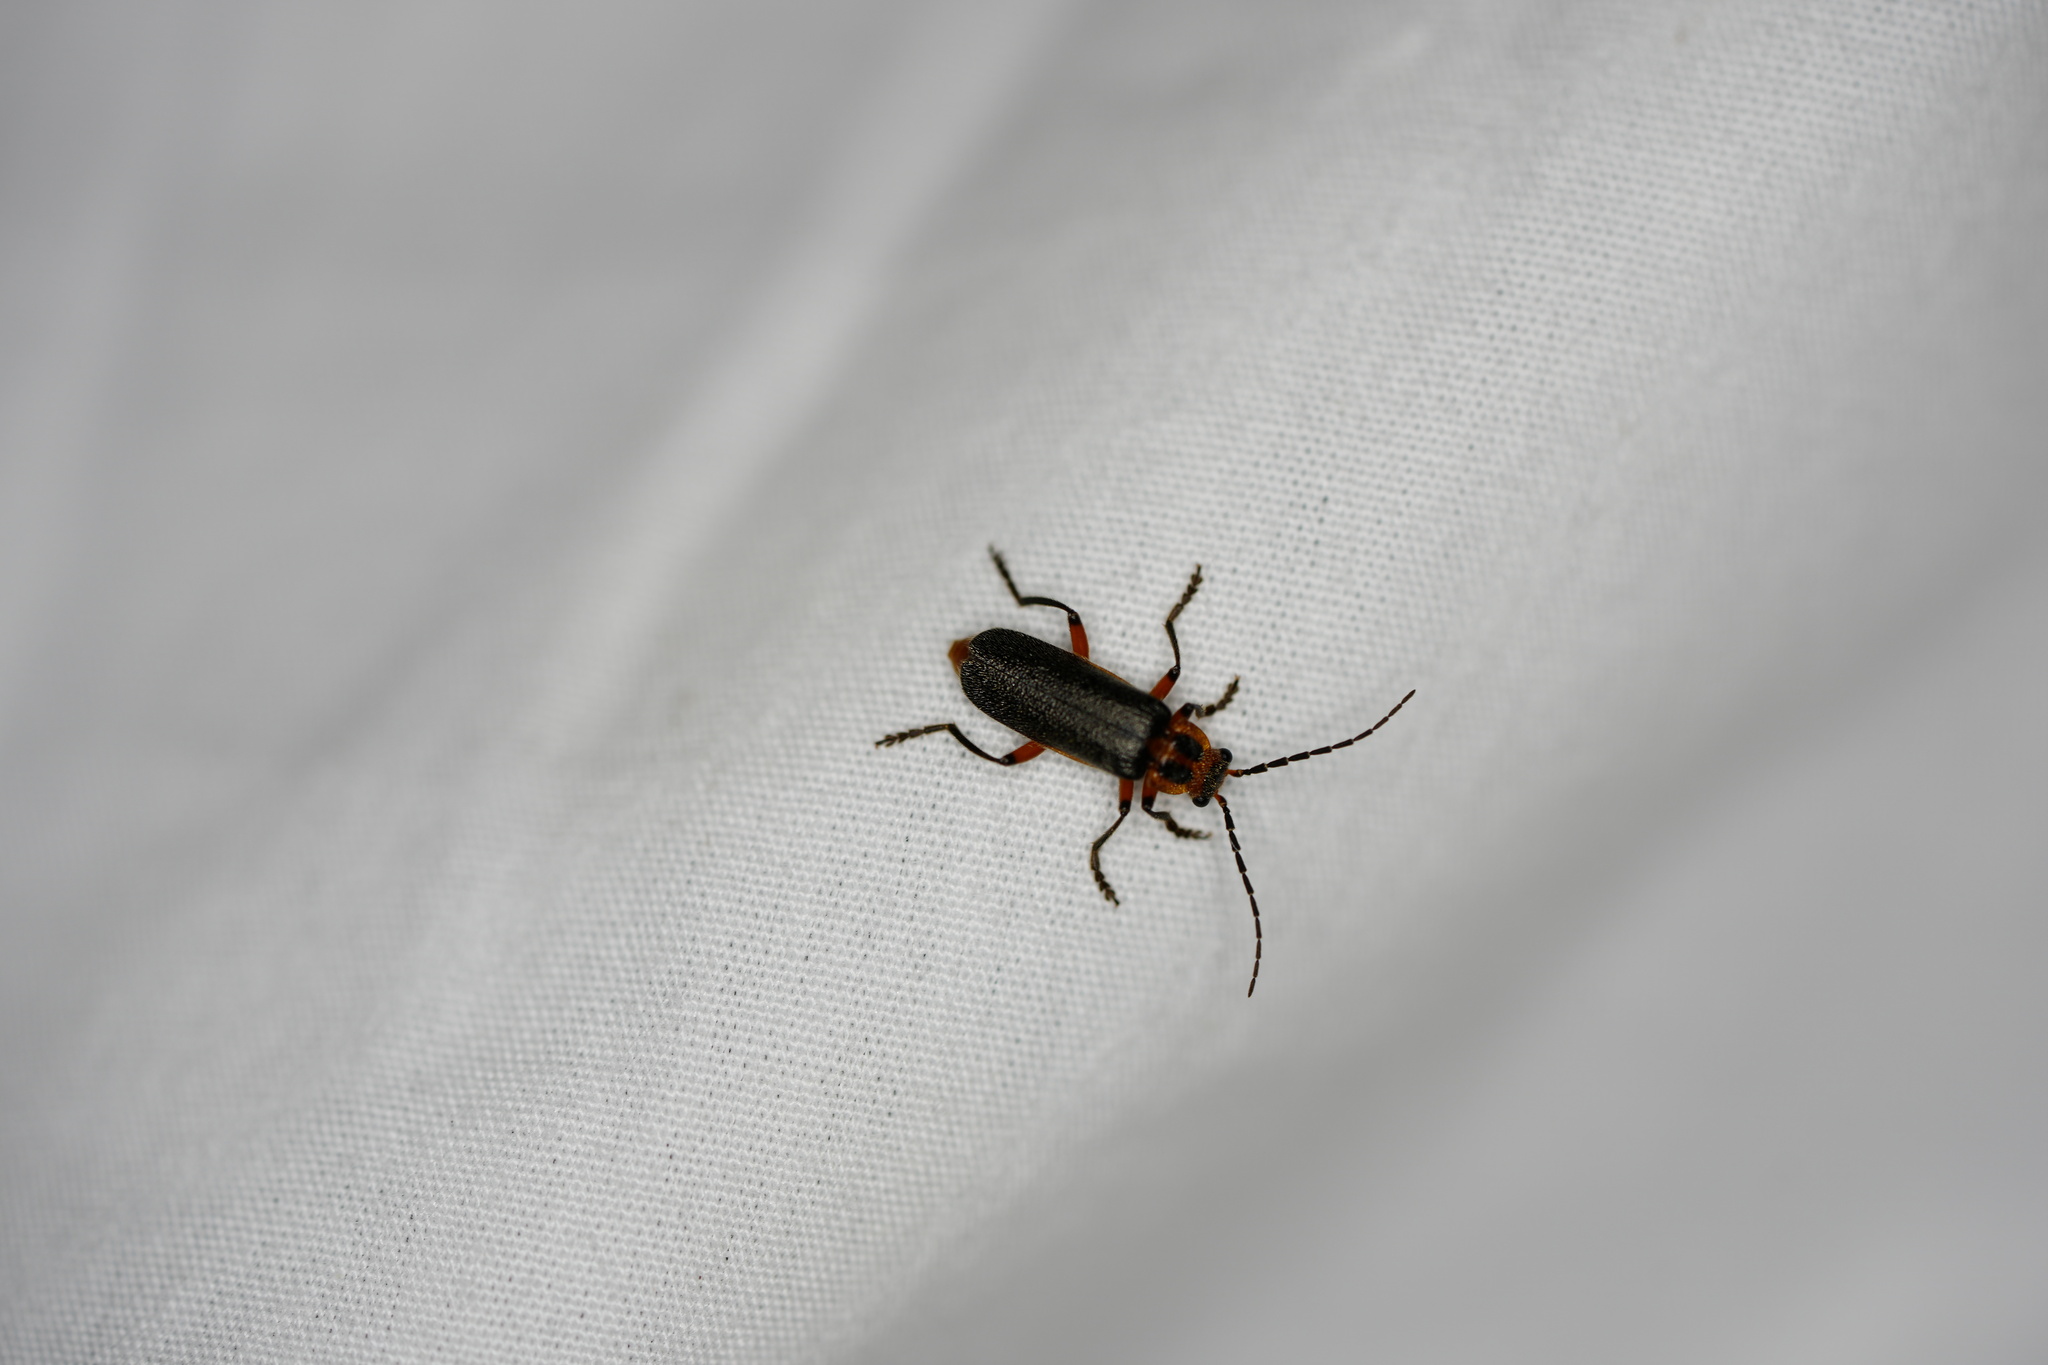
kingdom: Animalia
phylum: Arthropoda
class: Insecta
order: Coleoptera
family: Cantharidae
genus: Atalantycha
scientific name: Atalantycha bilineata
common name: Two-lined leatherwing
